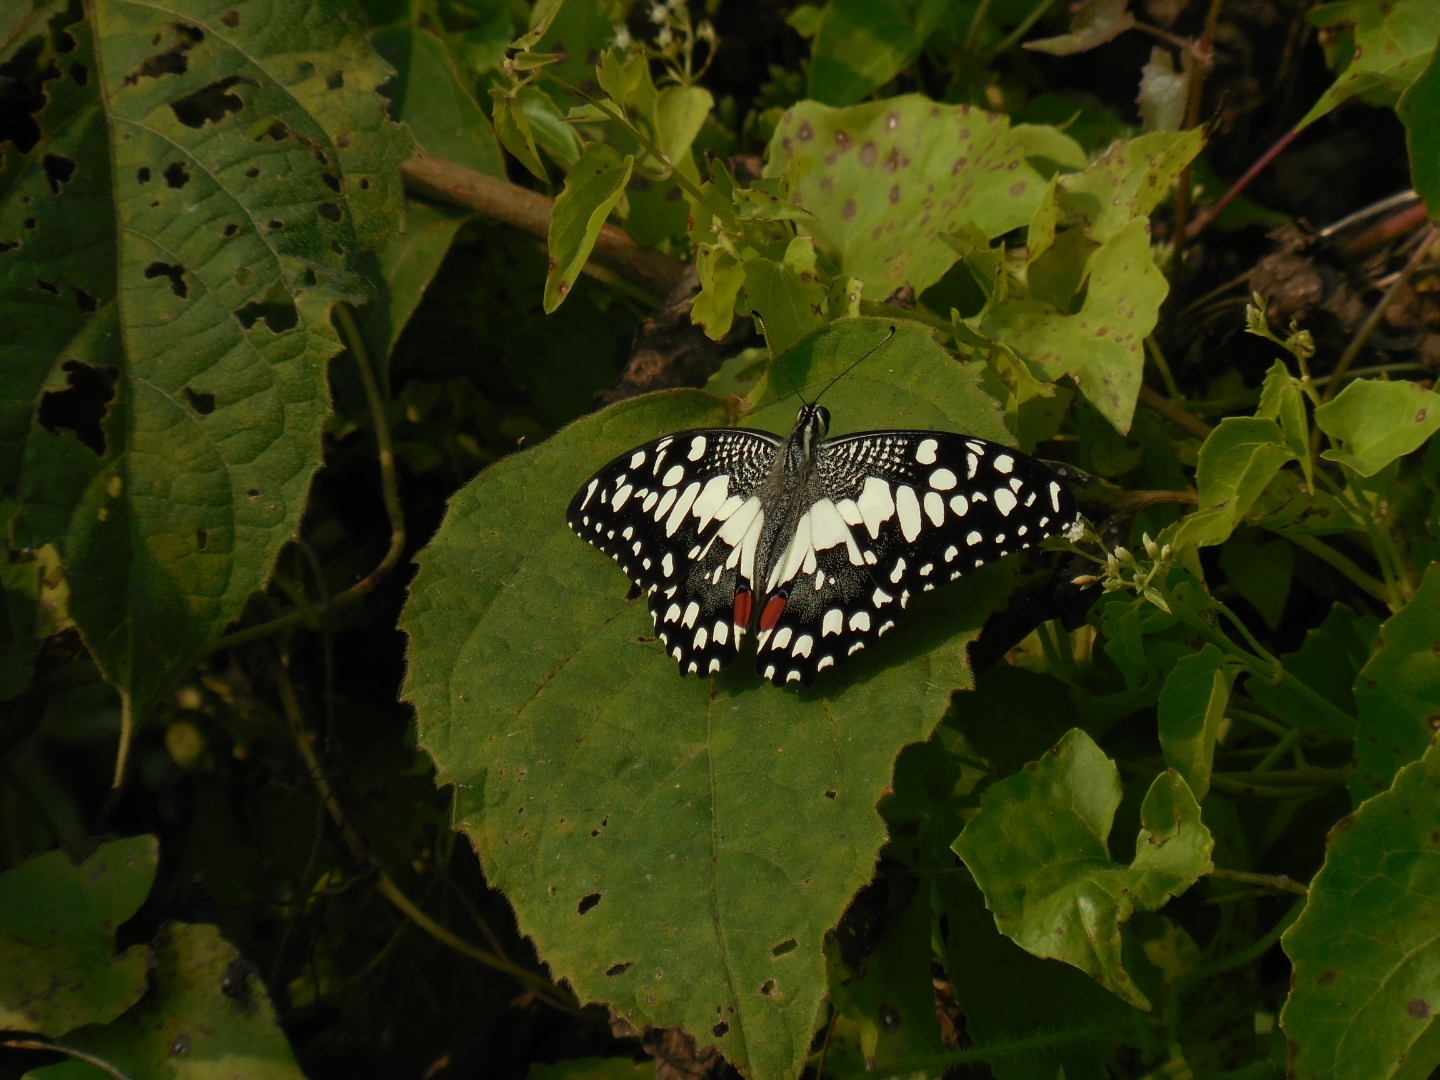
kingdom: Animalia
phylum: Arthropoda
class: Insecta
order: Lepidoptera
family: Papilionidae
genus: Papilio
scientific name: Papilio demoleus
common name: Lime butterfly
